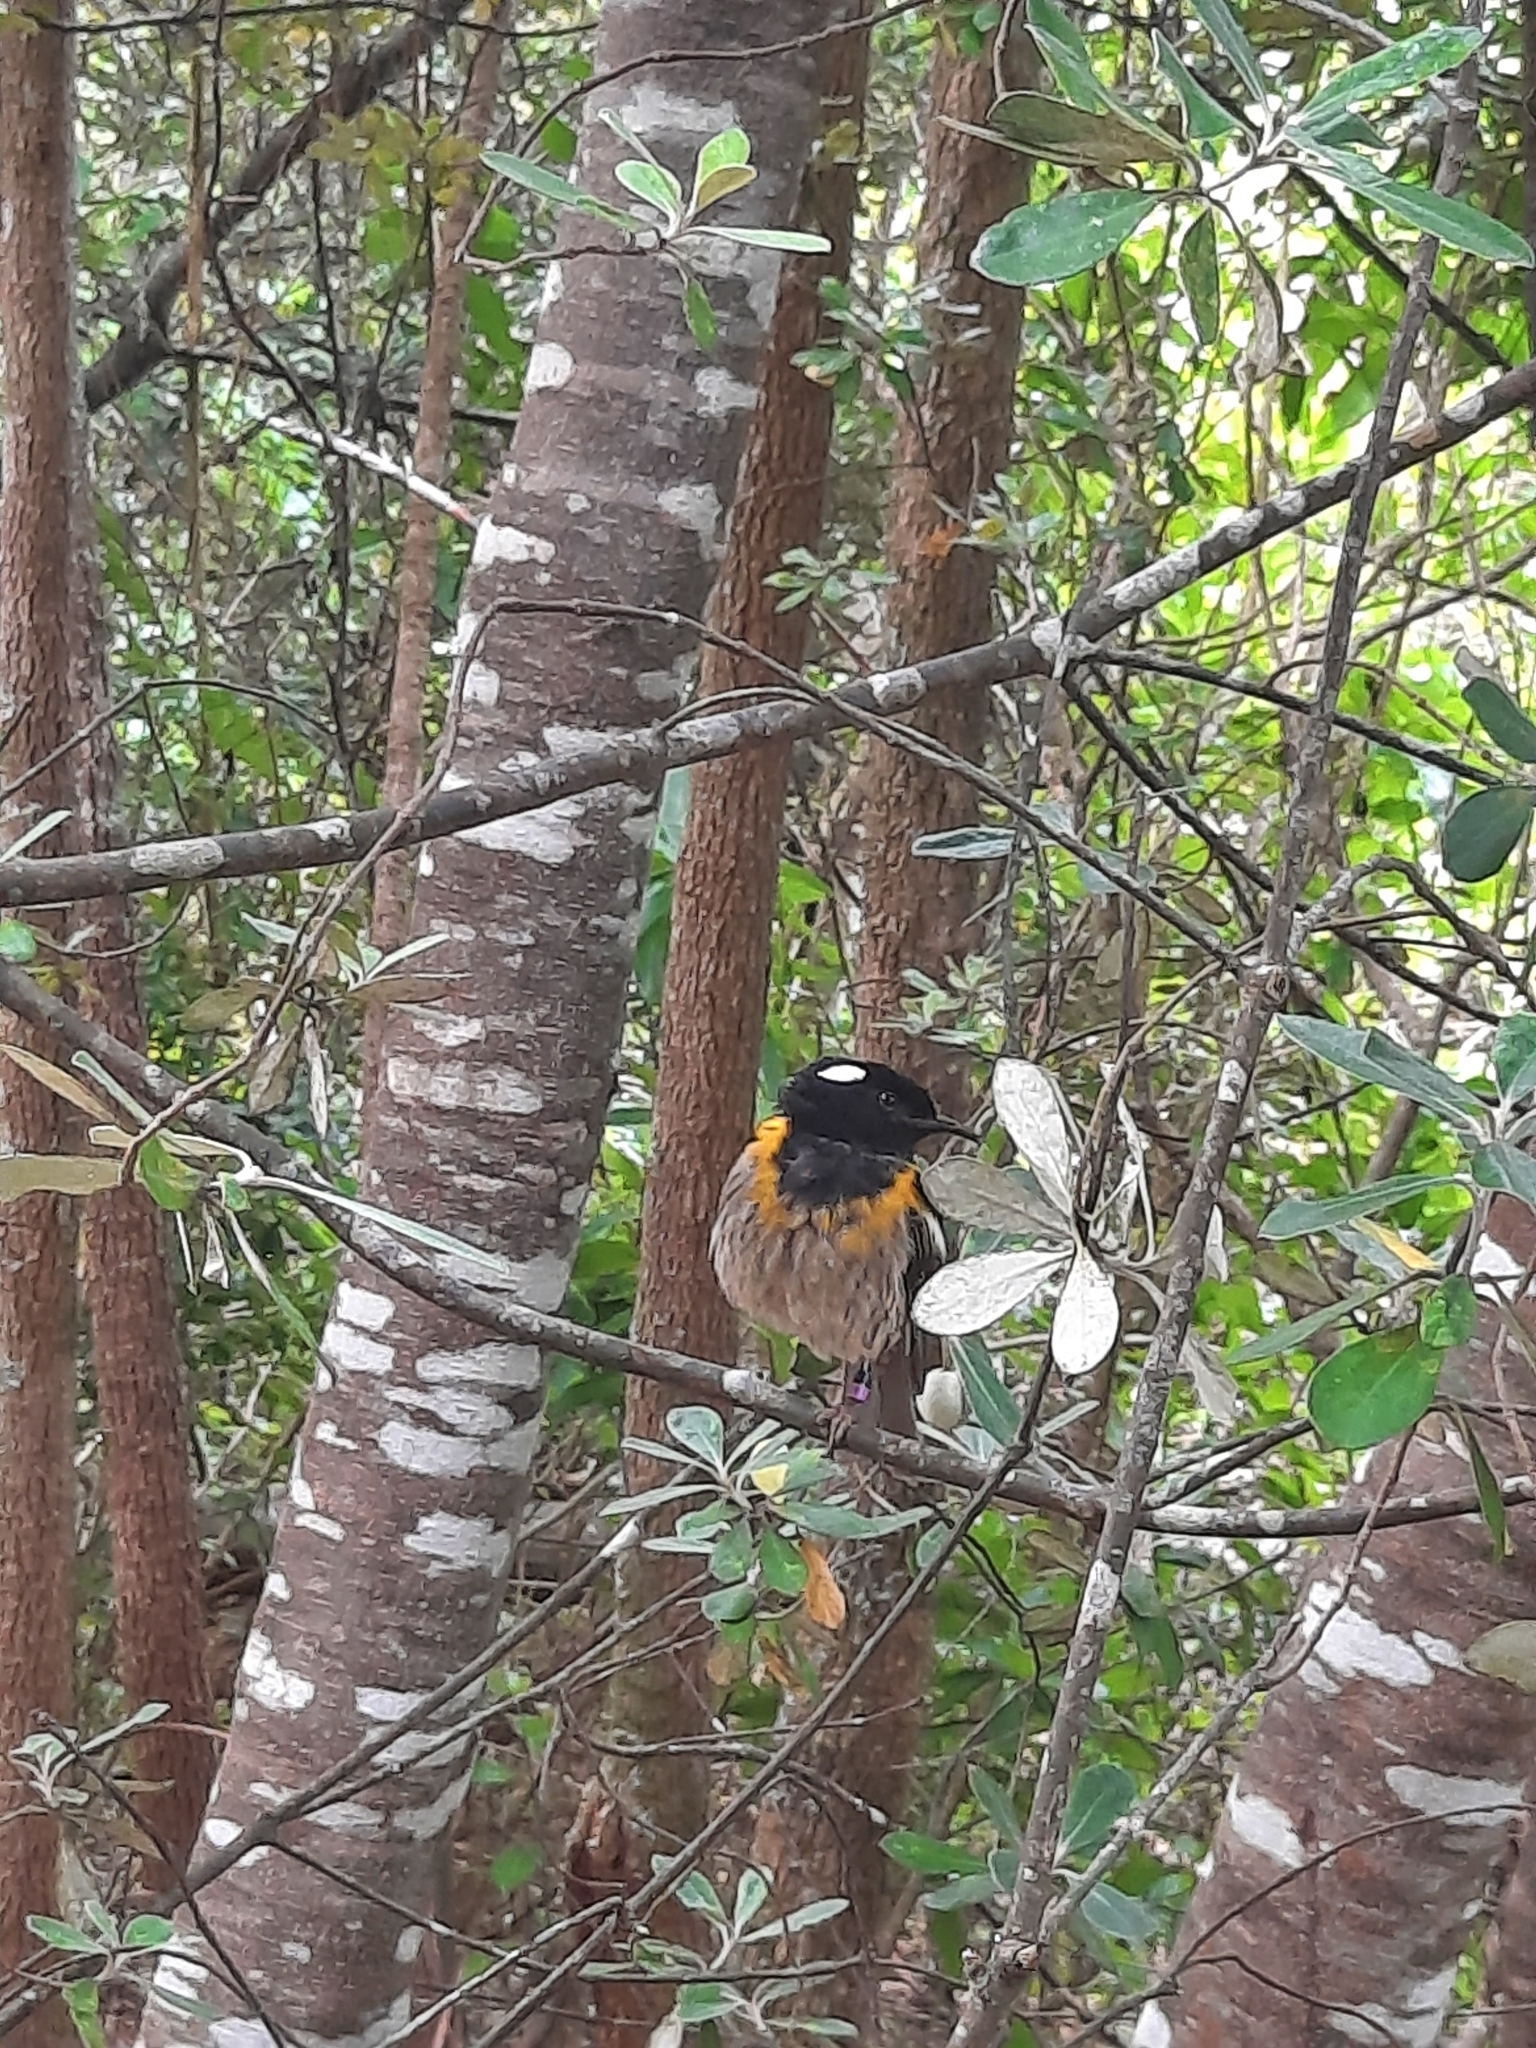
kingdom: Animalia
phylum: Chordata
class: Aves
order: Passeriformes
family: Notiomystidae
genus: Notiomystis
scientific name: Notiomystis cincta
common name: Stitchbird
